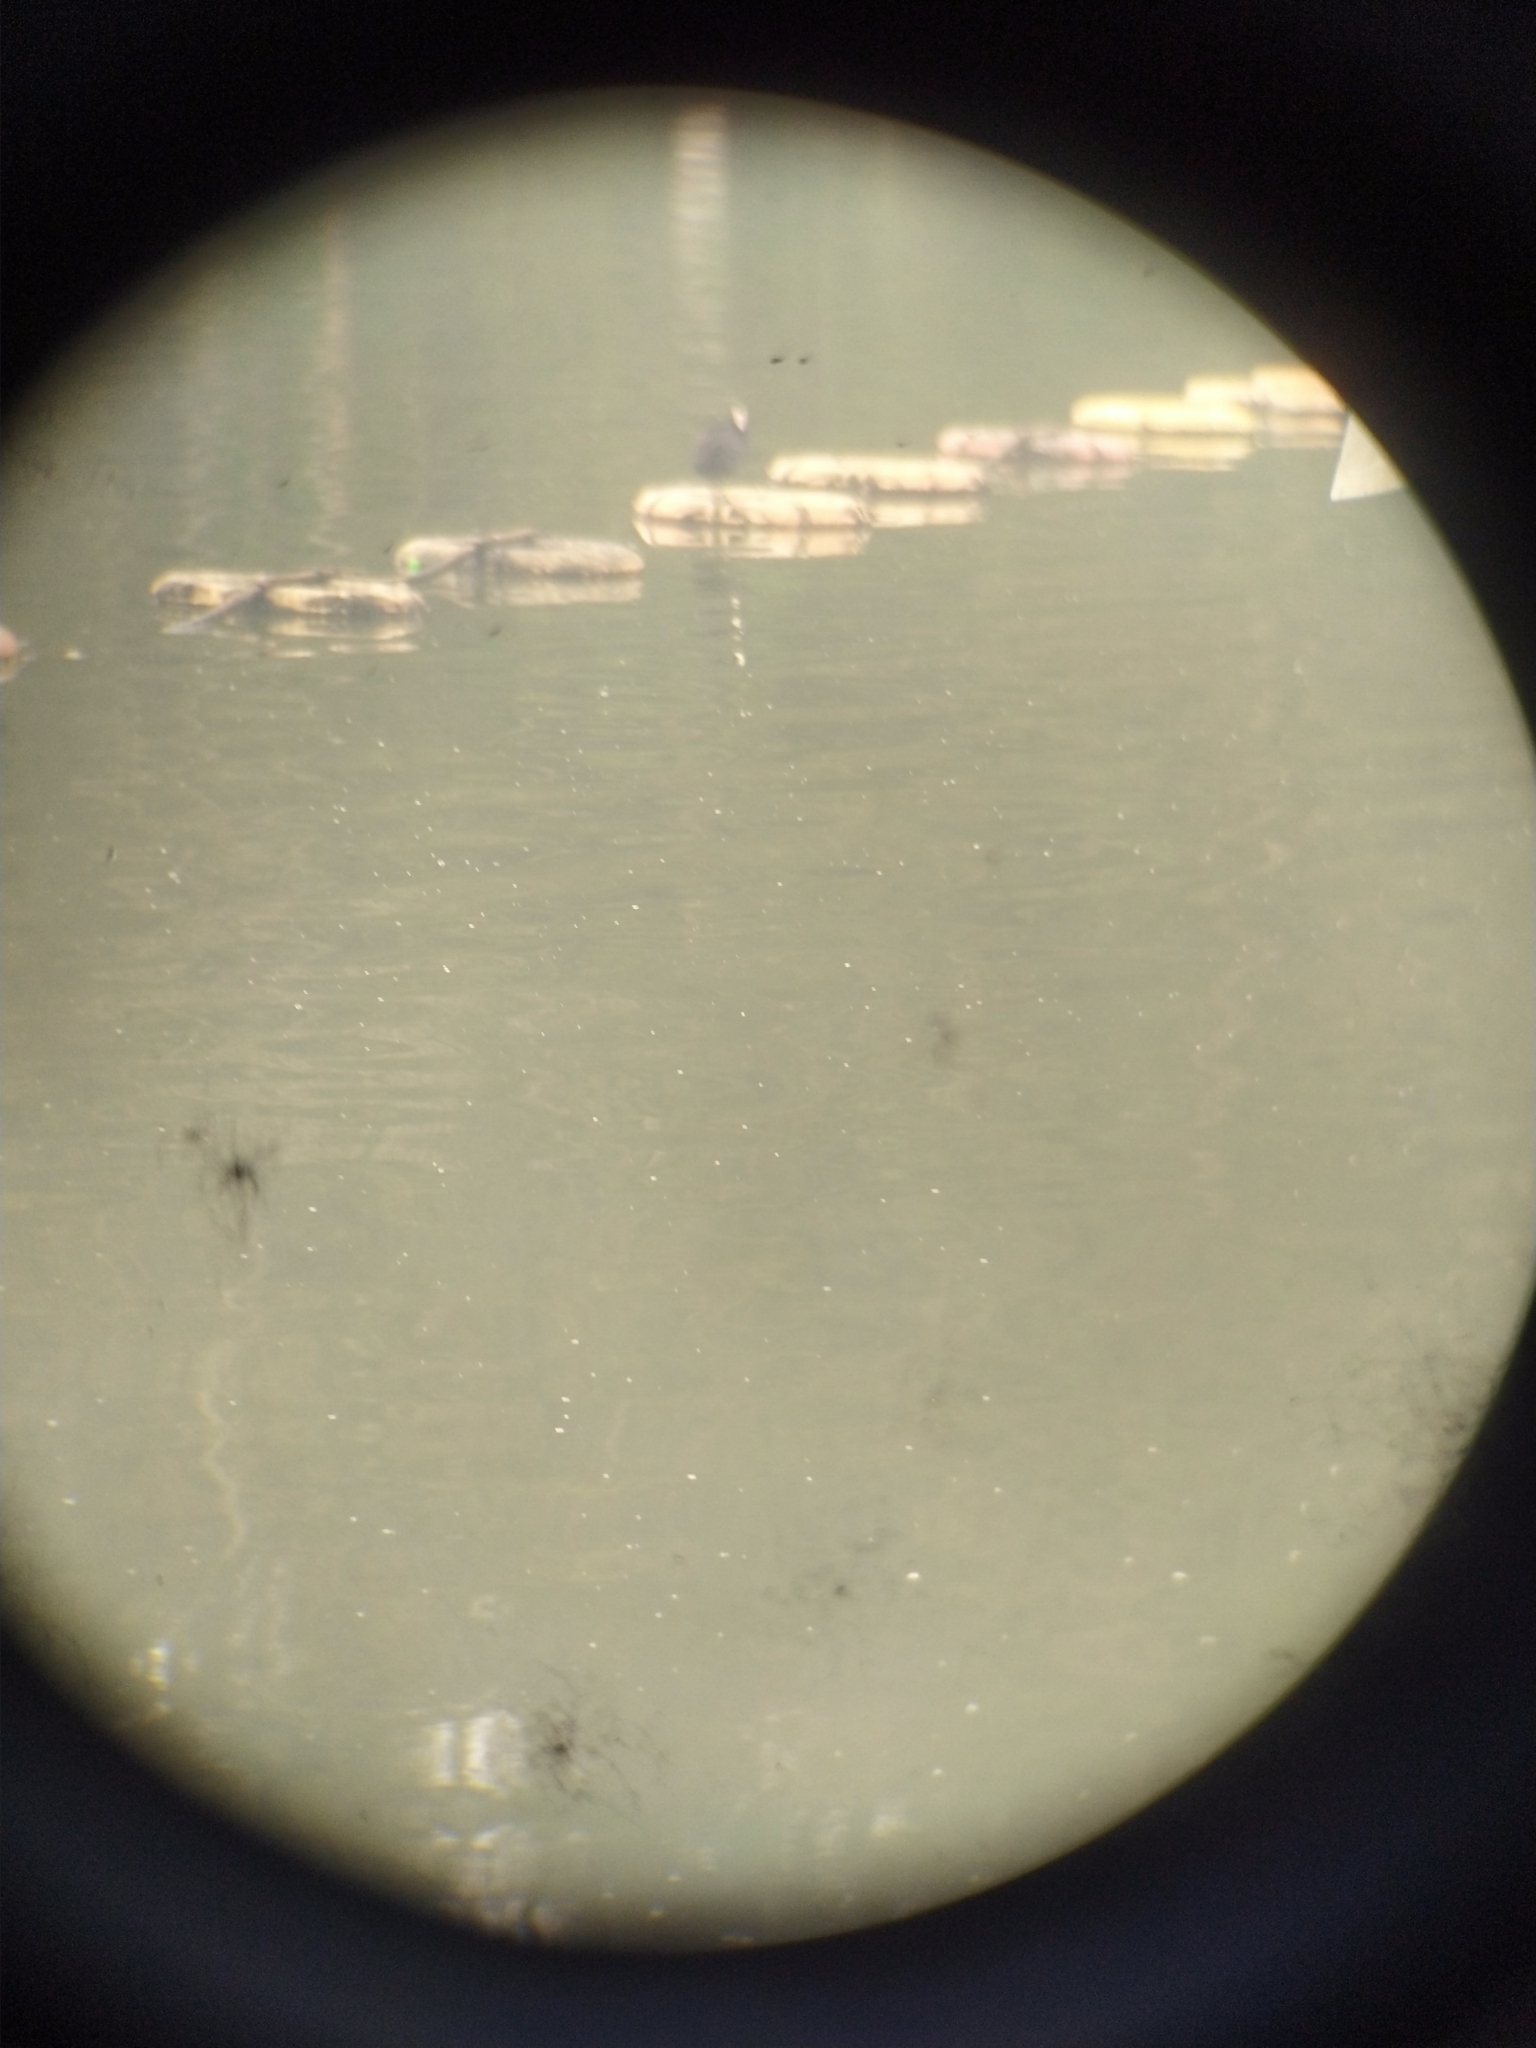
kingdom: Animalia
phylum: Chordata
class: Aves
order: Gruiformes
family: Rallidae
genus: Fulica
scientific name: Fulica atra
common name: Eurasian coot
